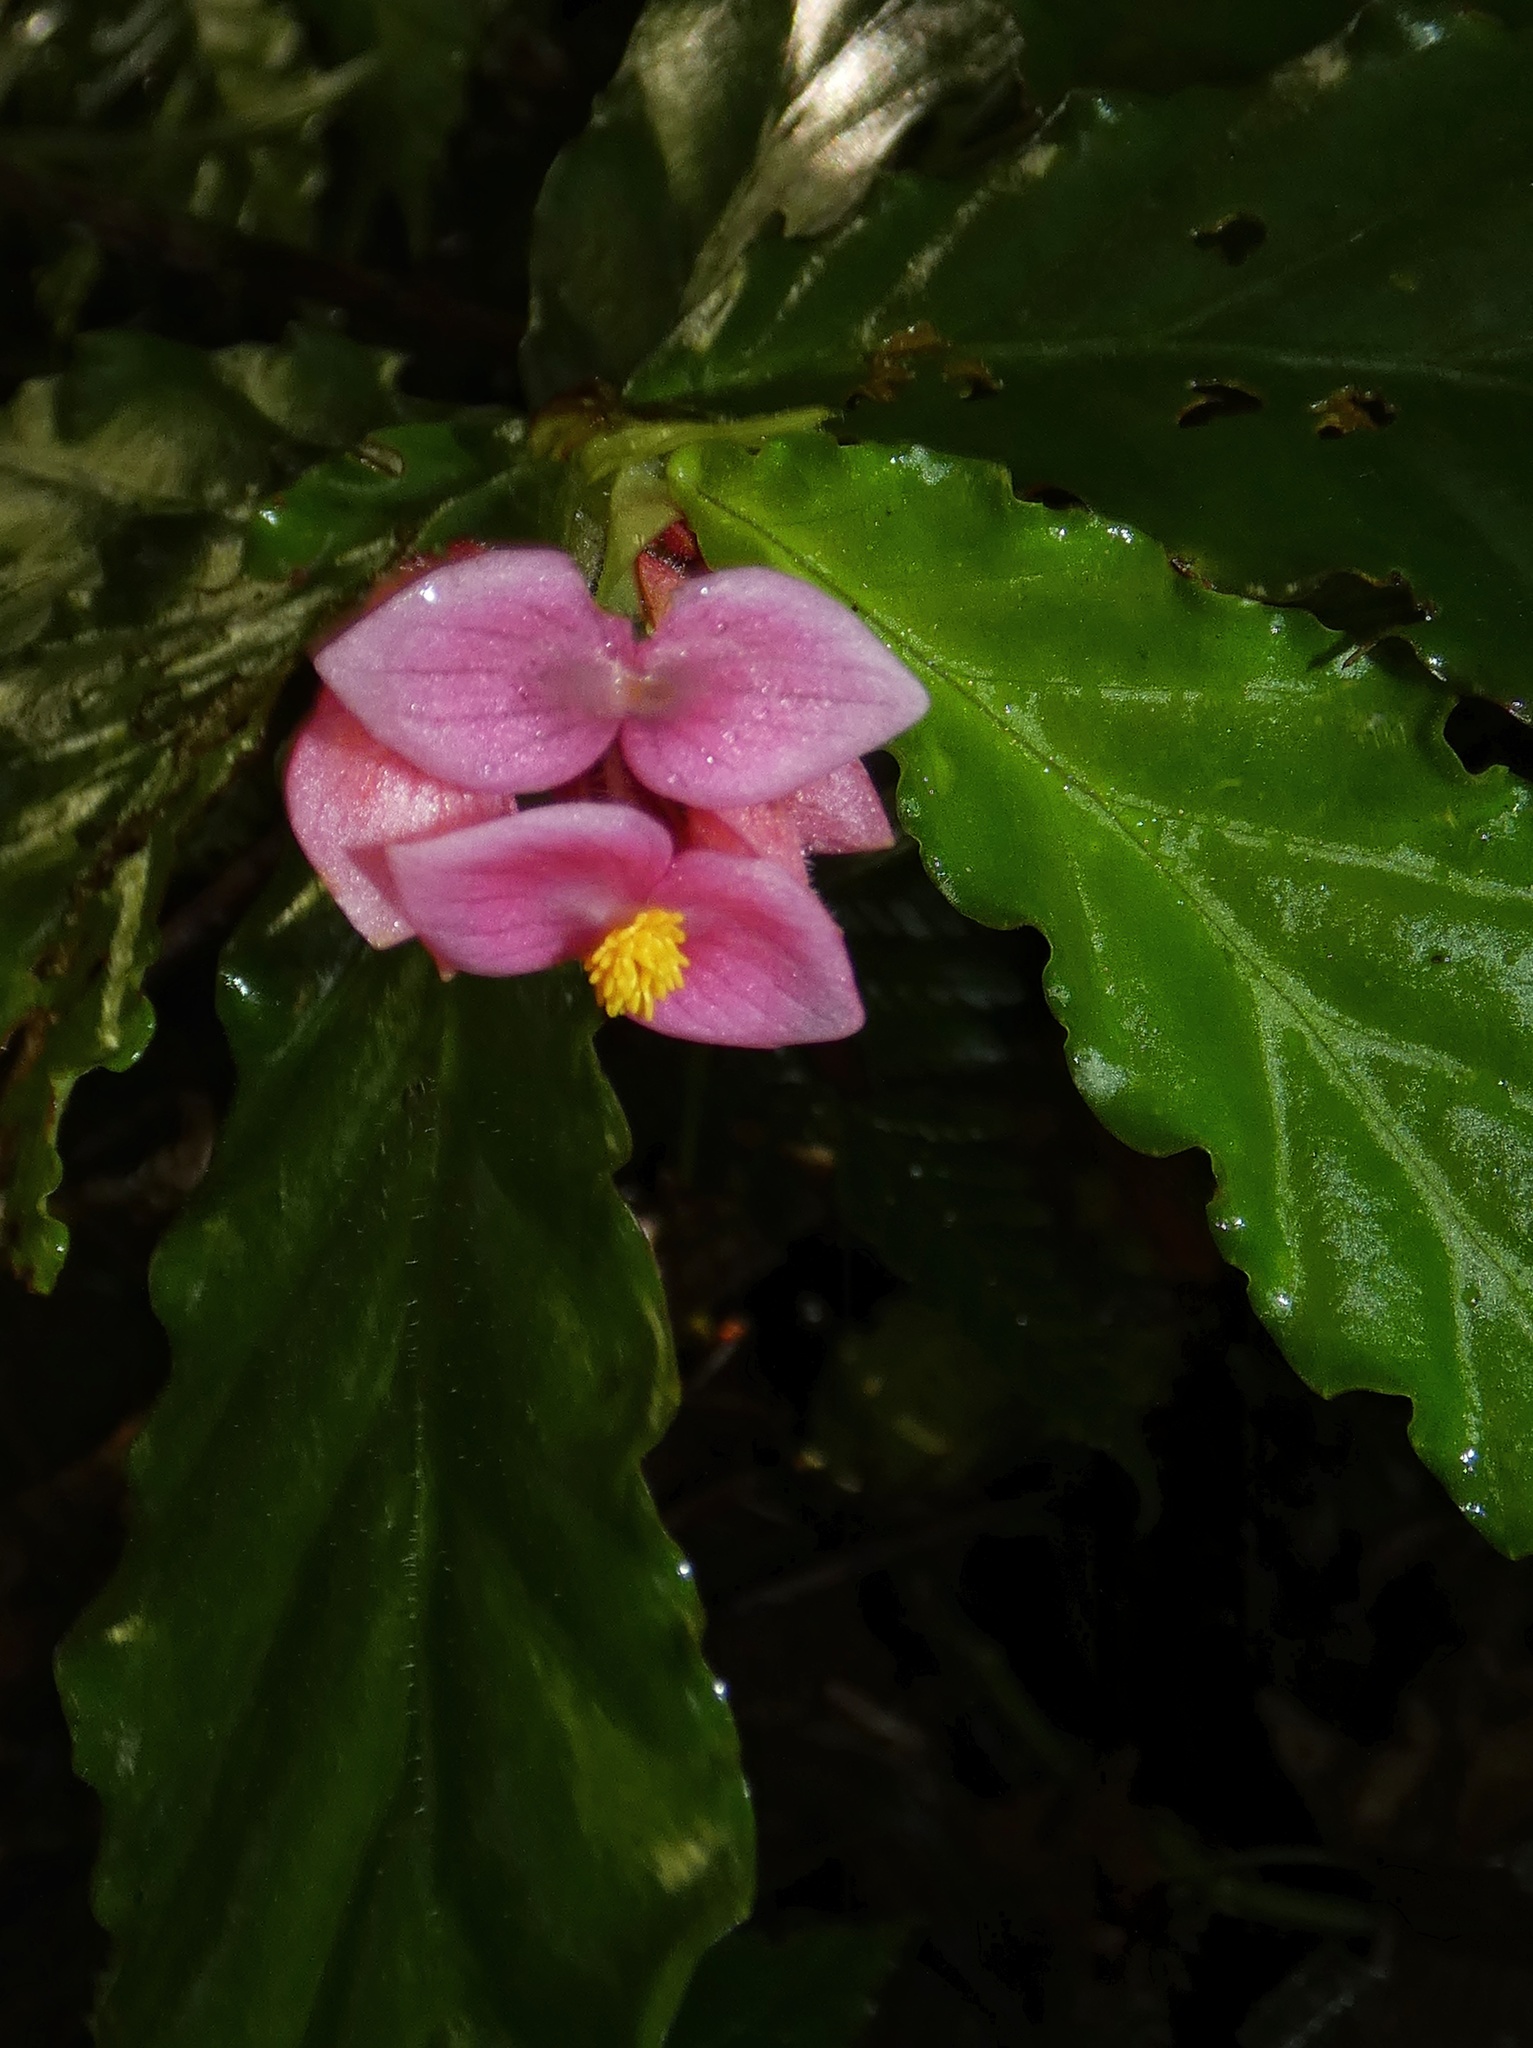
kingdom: Plantae
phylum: Tracheophyta
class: Magnoliopsida
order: Cucurbitales
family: Begoniaceae
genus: Begonia
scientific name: Begonia tonduzii
